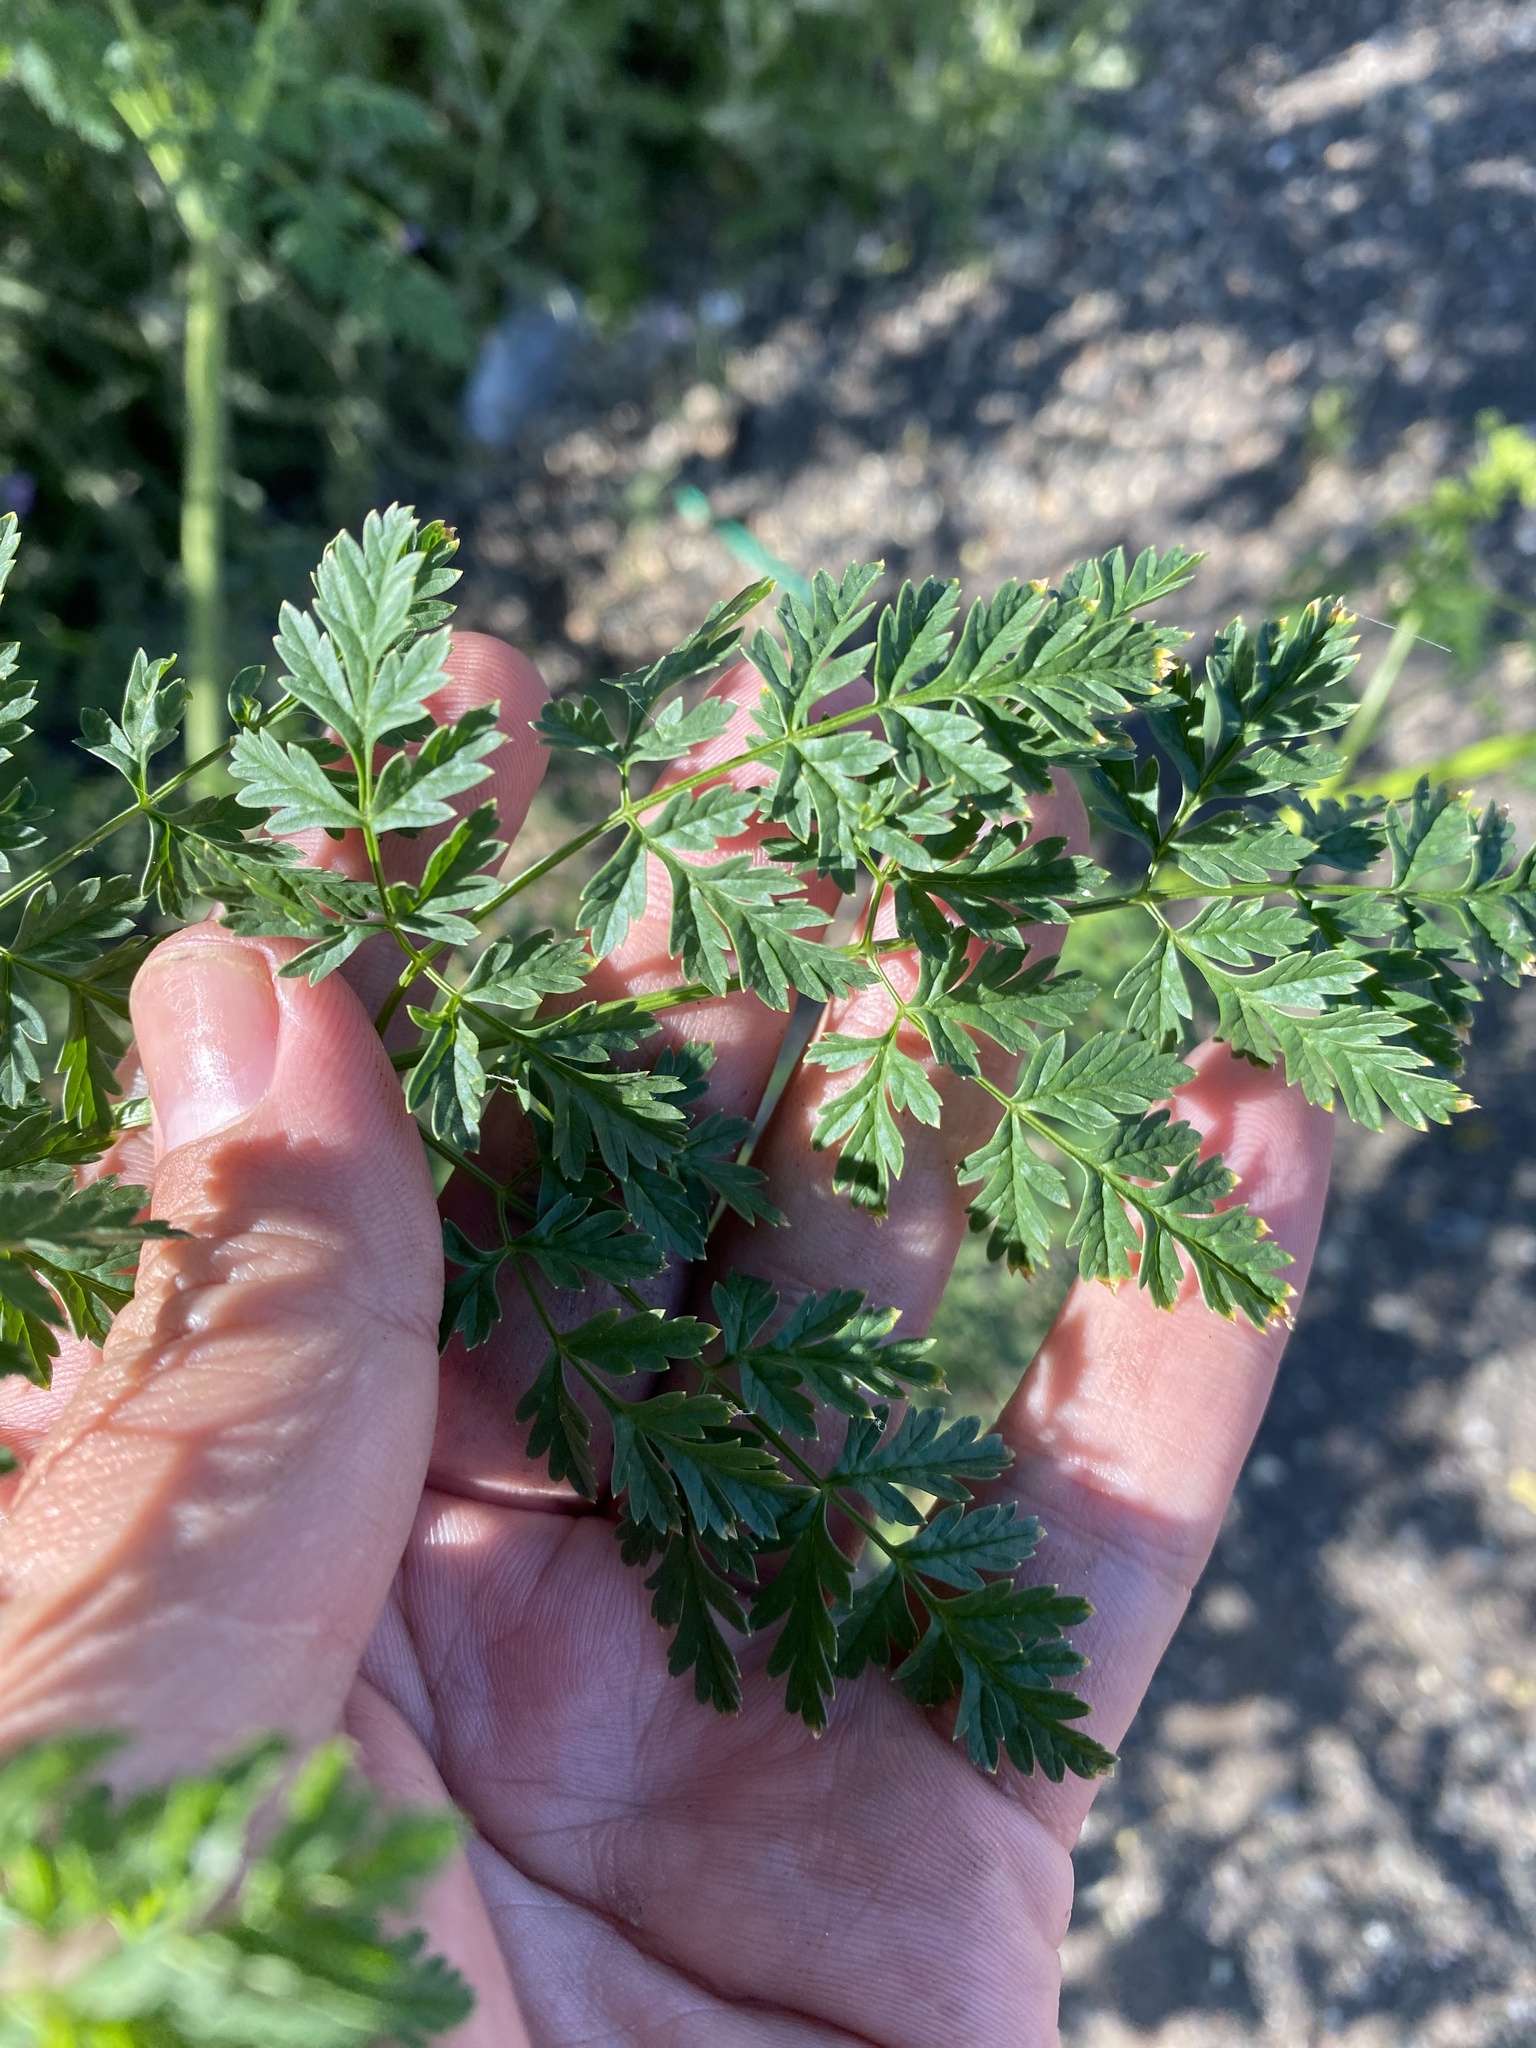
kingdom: Plantae
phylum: Tracheophyta
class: Magnoliopsida
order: Apiales
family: Apiaceae
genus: Conium
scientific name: Conium maculatum
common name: Hemlock
